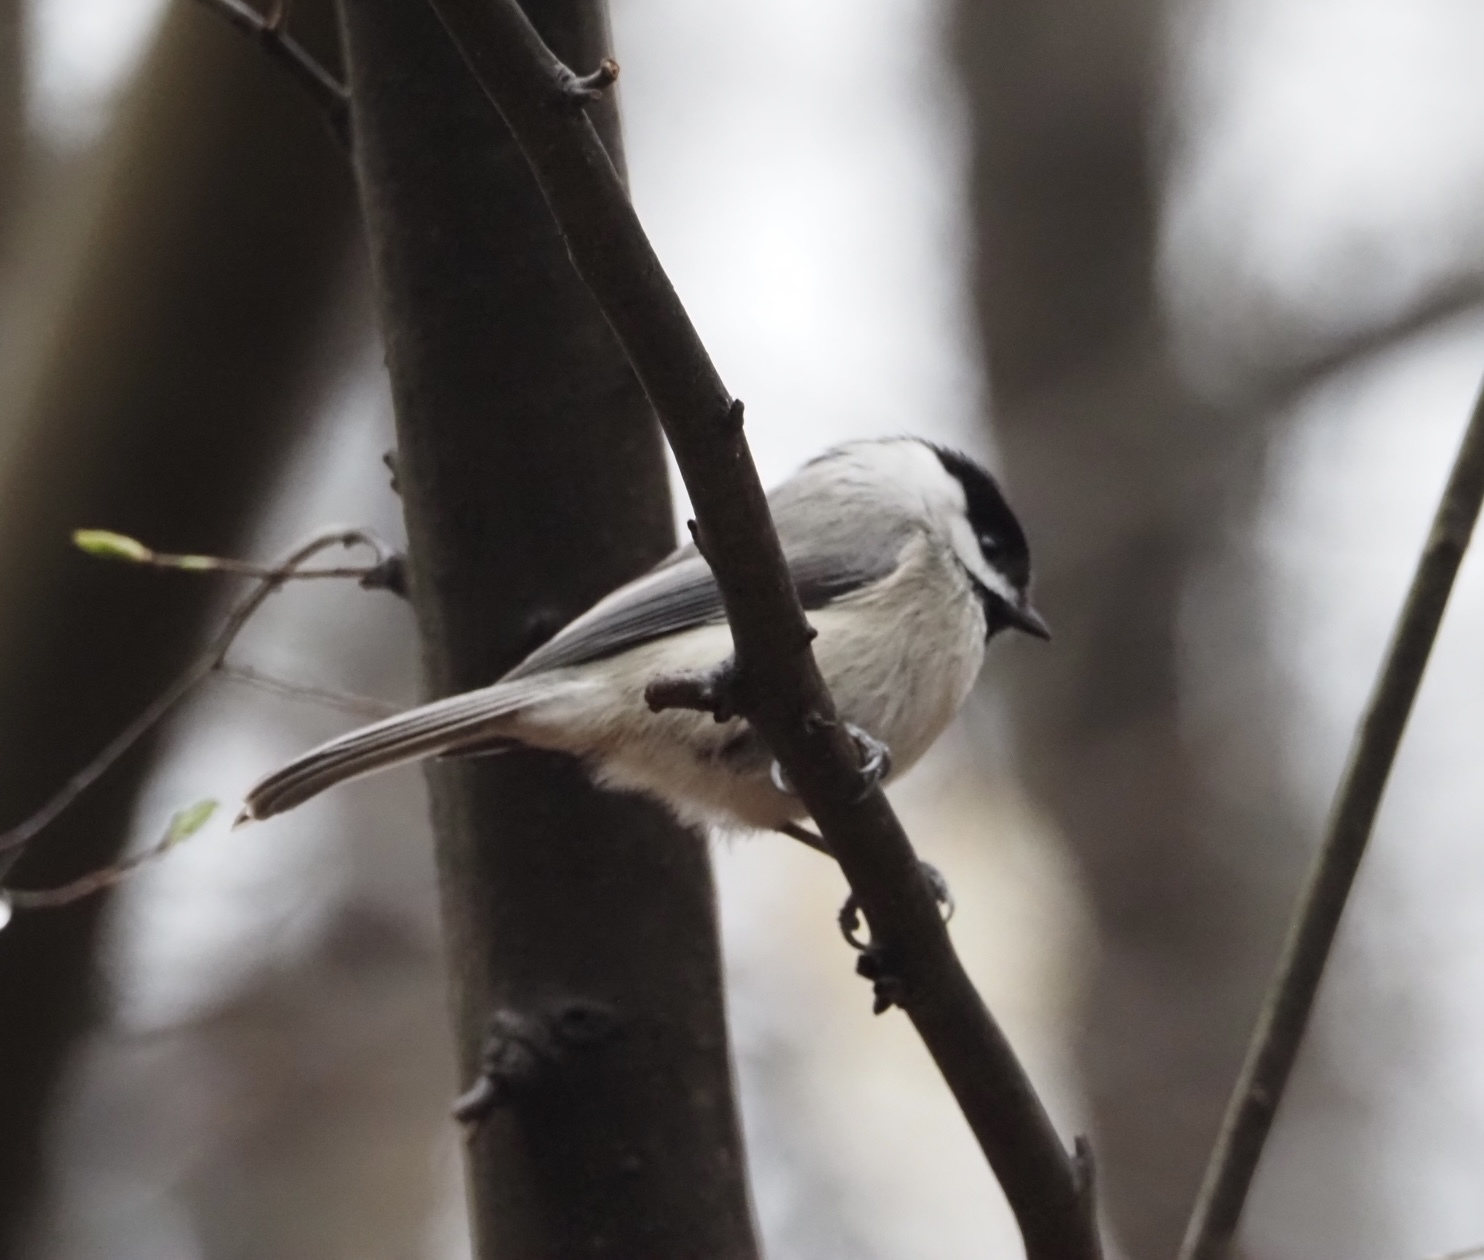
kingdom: Animalia
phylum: Chordata
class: Aves
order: Passeriformes
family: Paridae
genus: Poecile
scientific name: Poecile carolinensis
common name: Carolina chickadee
